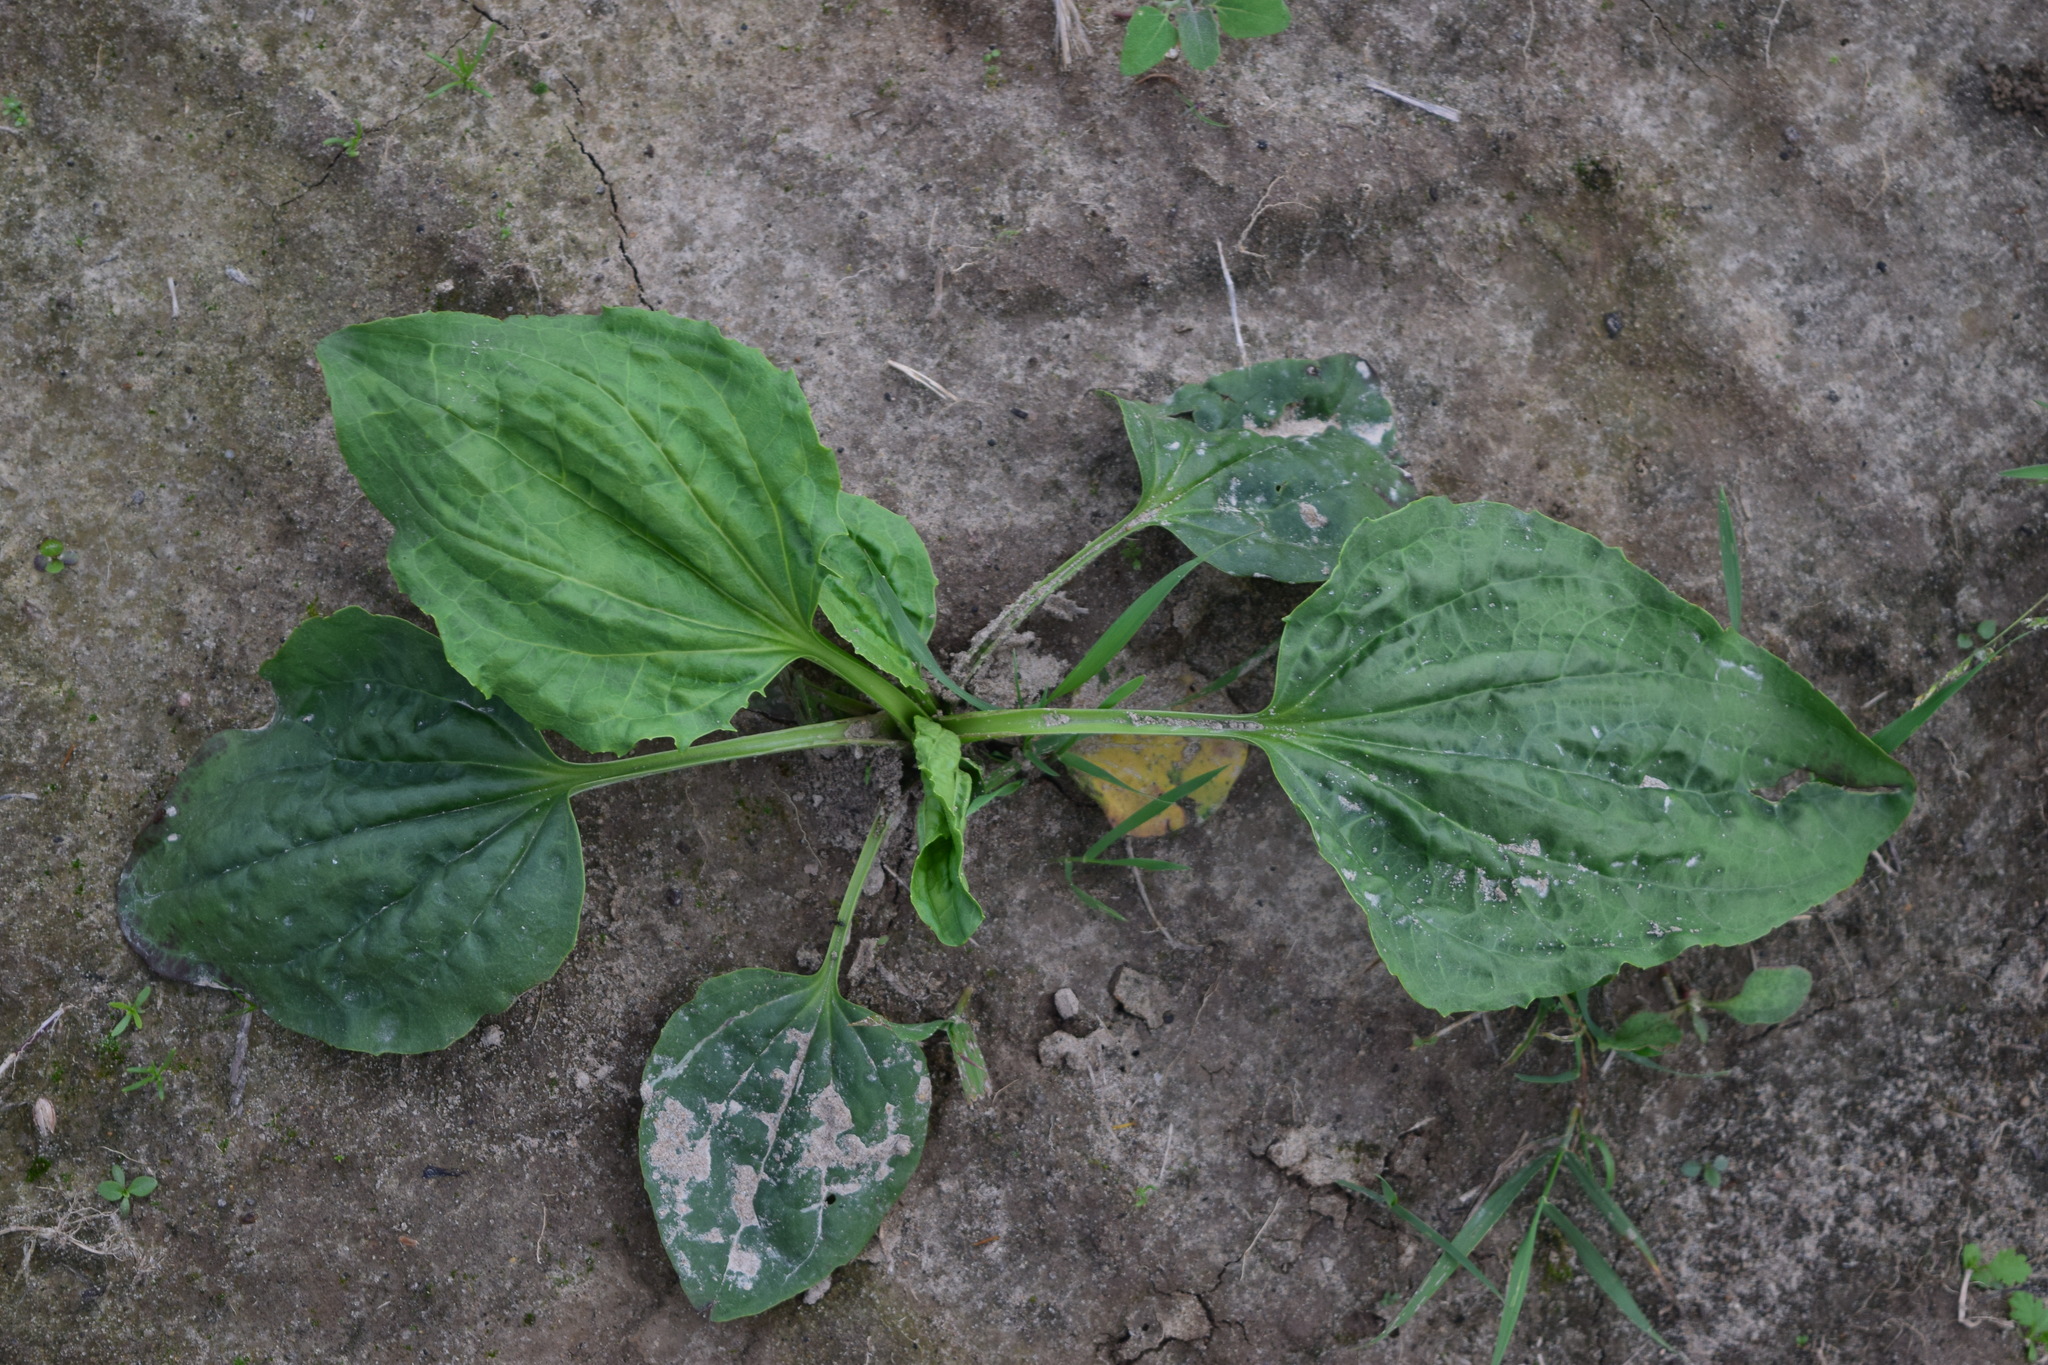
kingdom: Plantae
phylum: Tracheophyta
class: Magnoliopsida
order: Lamiales
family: Plantaginaceae
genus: Plantago
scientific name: Plantago major
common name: Common plantain
